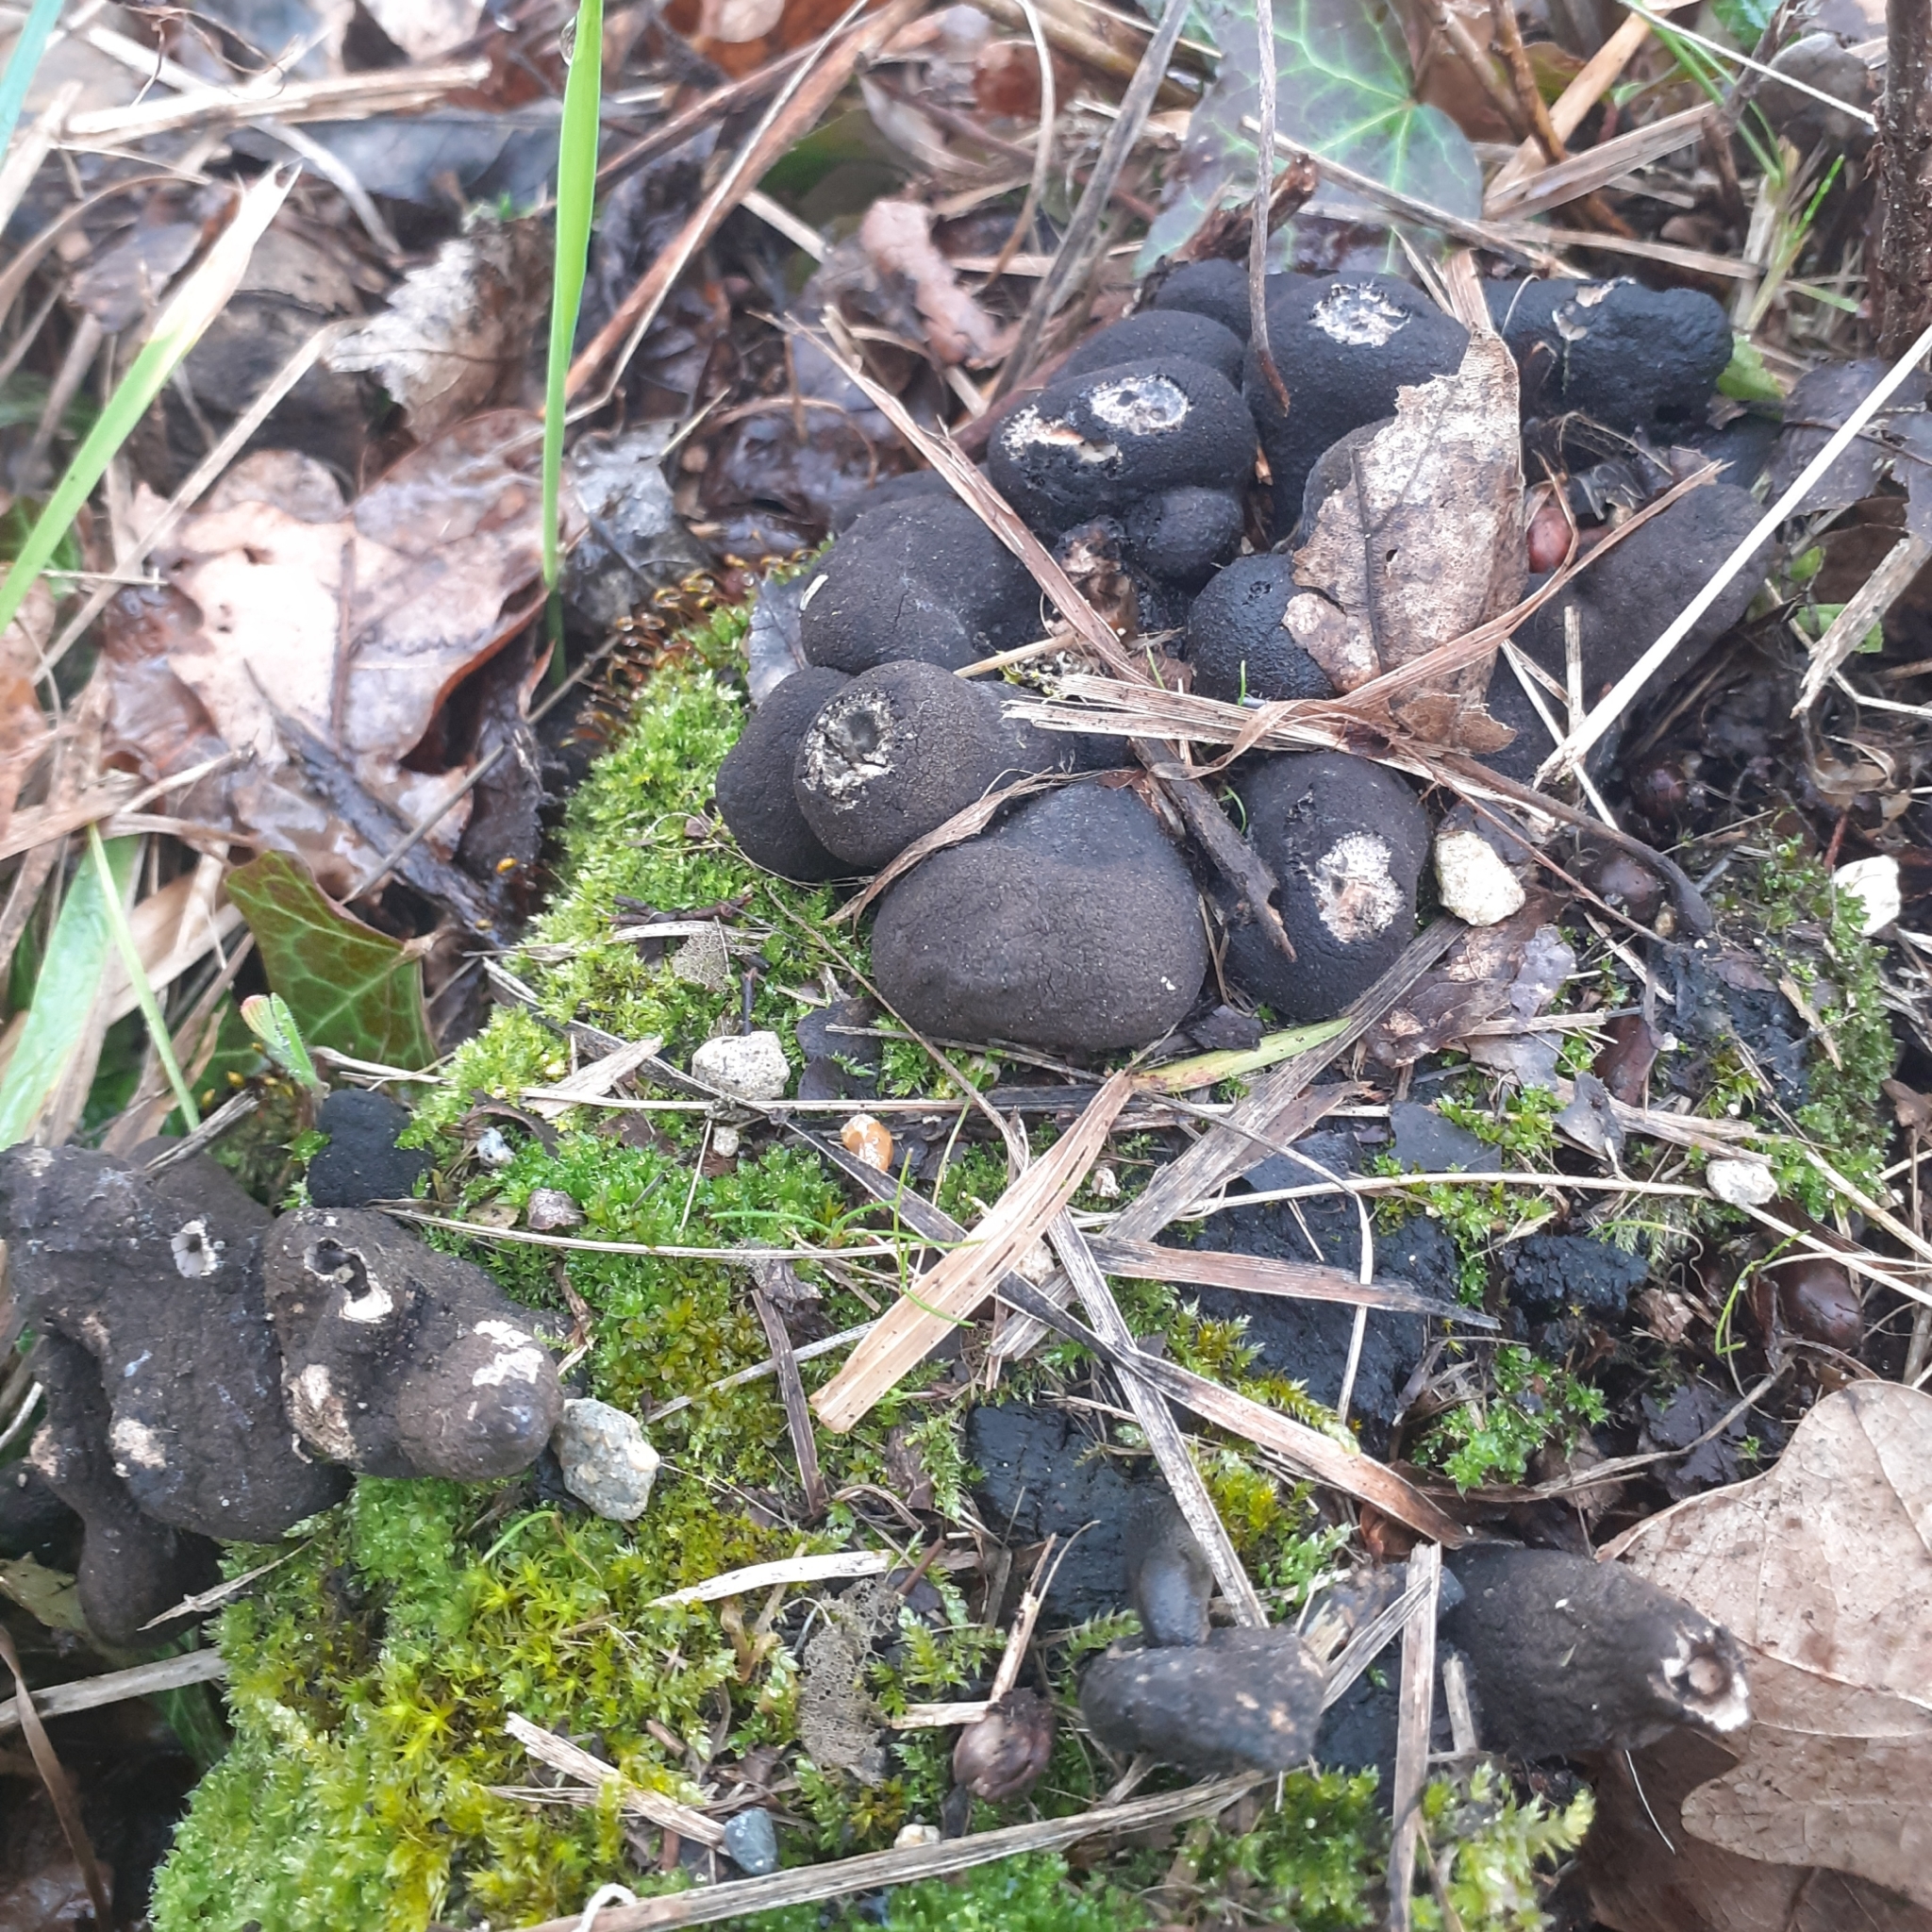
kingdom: Fungi
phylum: Ascomycota
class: Sordariomycetes
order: Xylariales
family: Xylariaceae
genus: Xylaria
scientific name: Xylaria polymorpha
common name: Dead man's fingers
